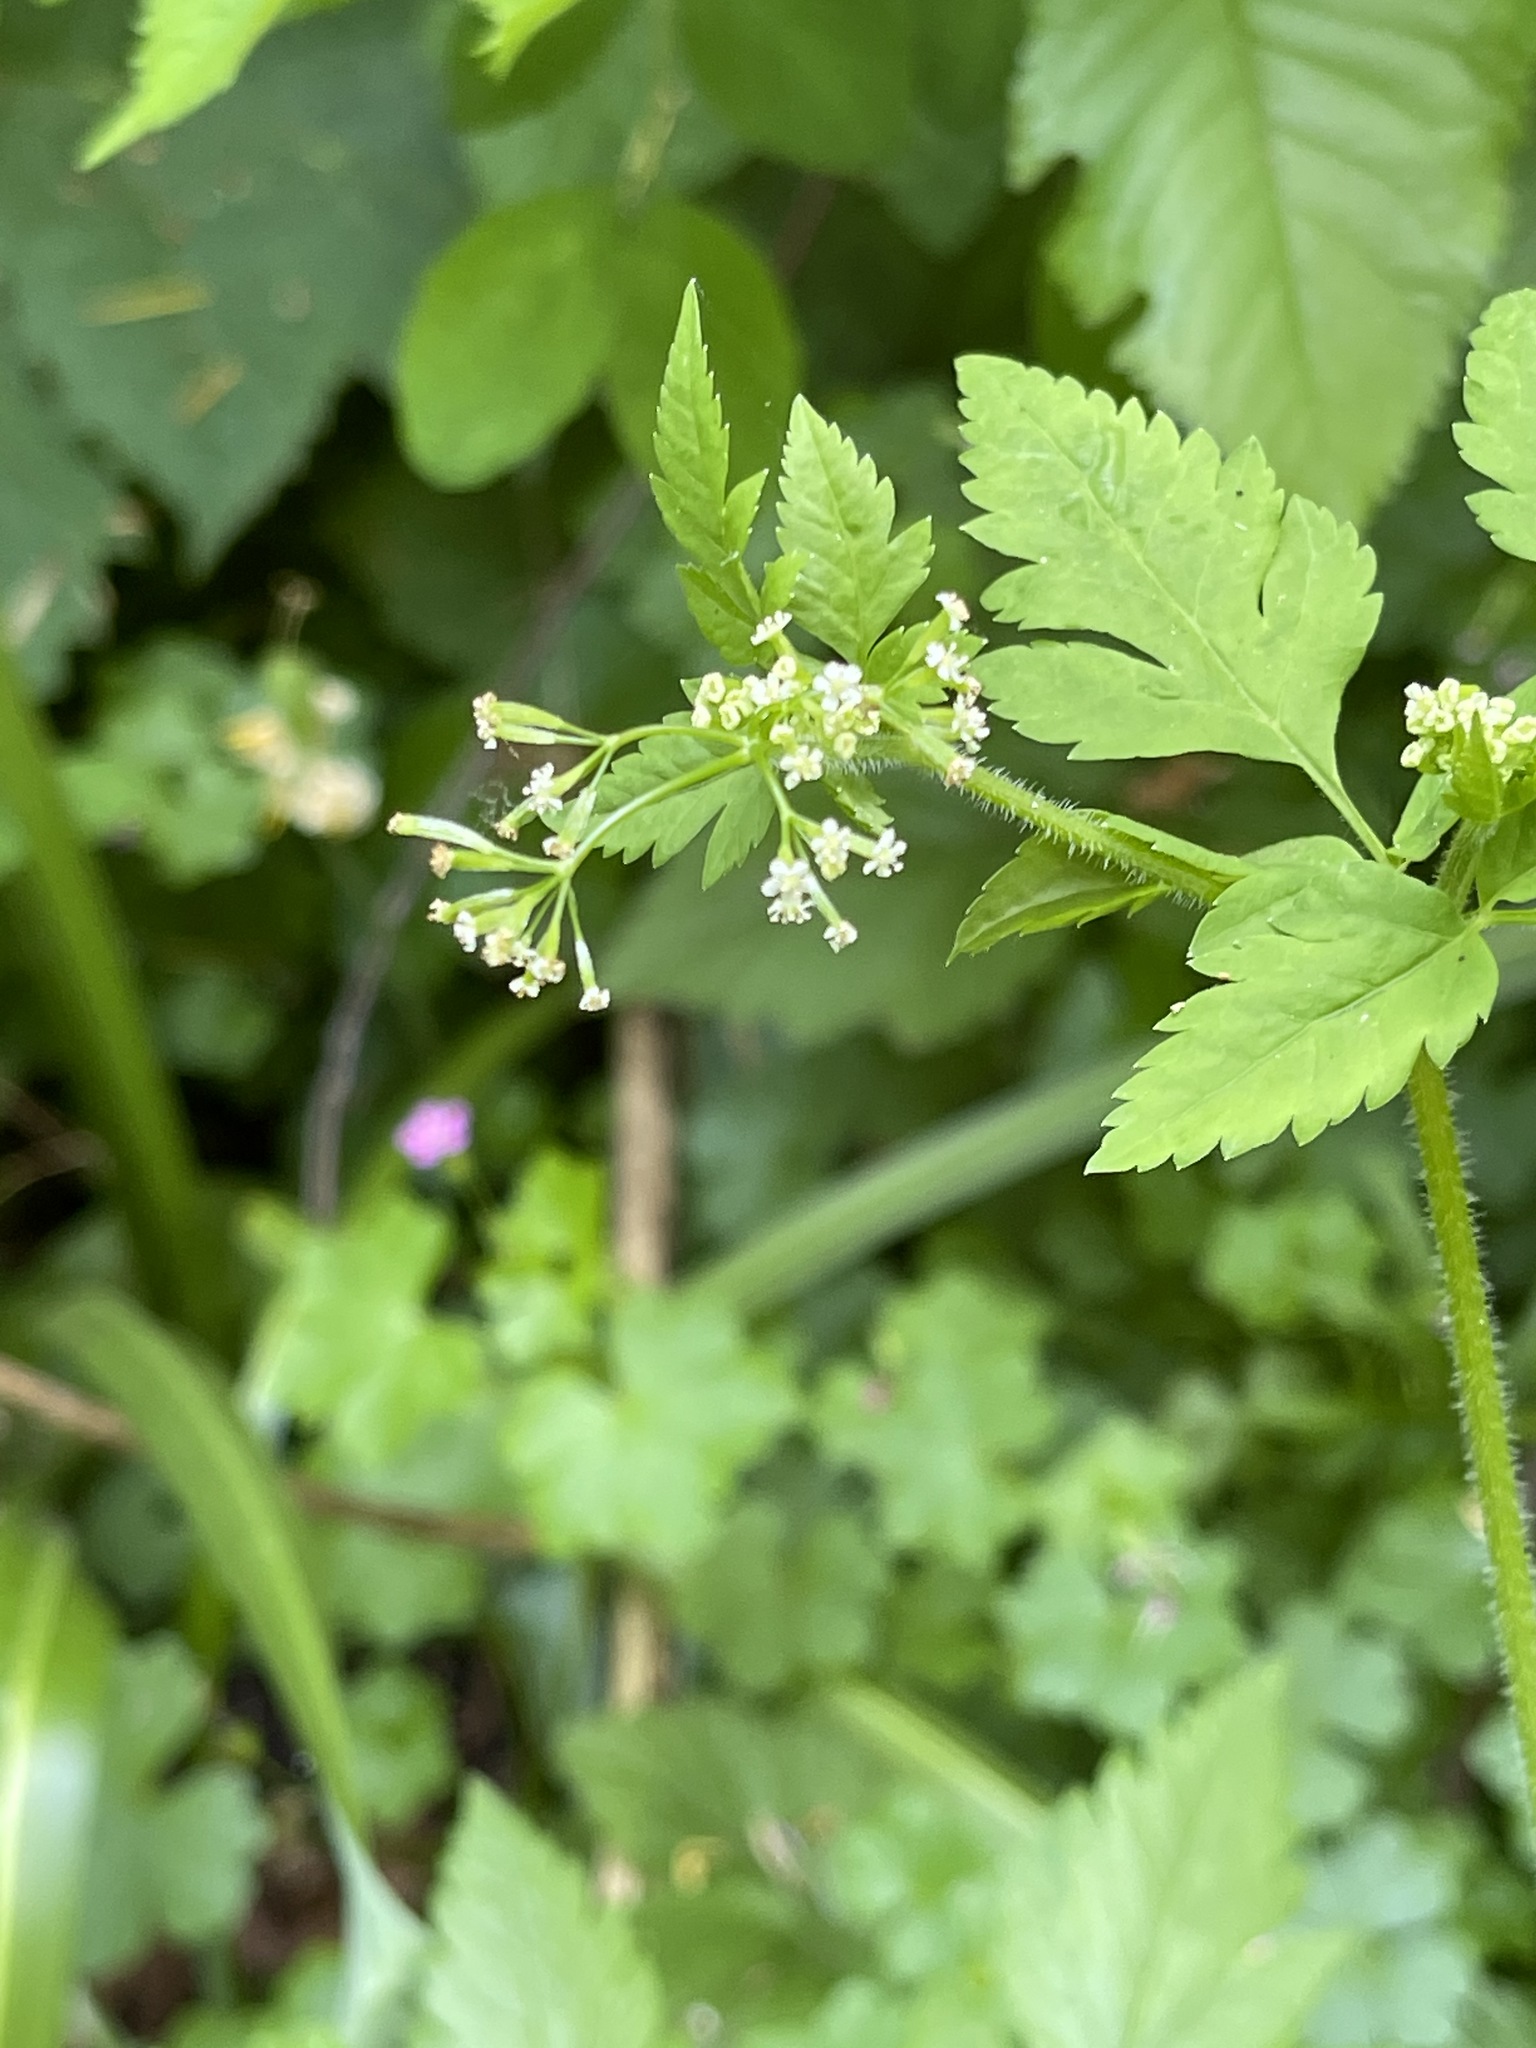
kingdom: Plantae
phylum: Tracheophyta
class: Magnoliopsida
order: Apiales
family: Apiaceae
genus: Osmorhiza
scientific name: Osmorhiza berteroi
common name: Mountain sweet cicely
